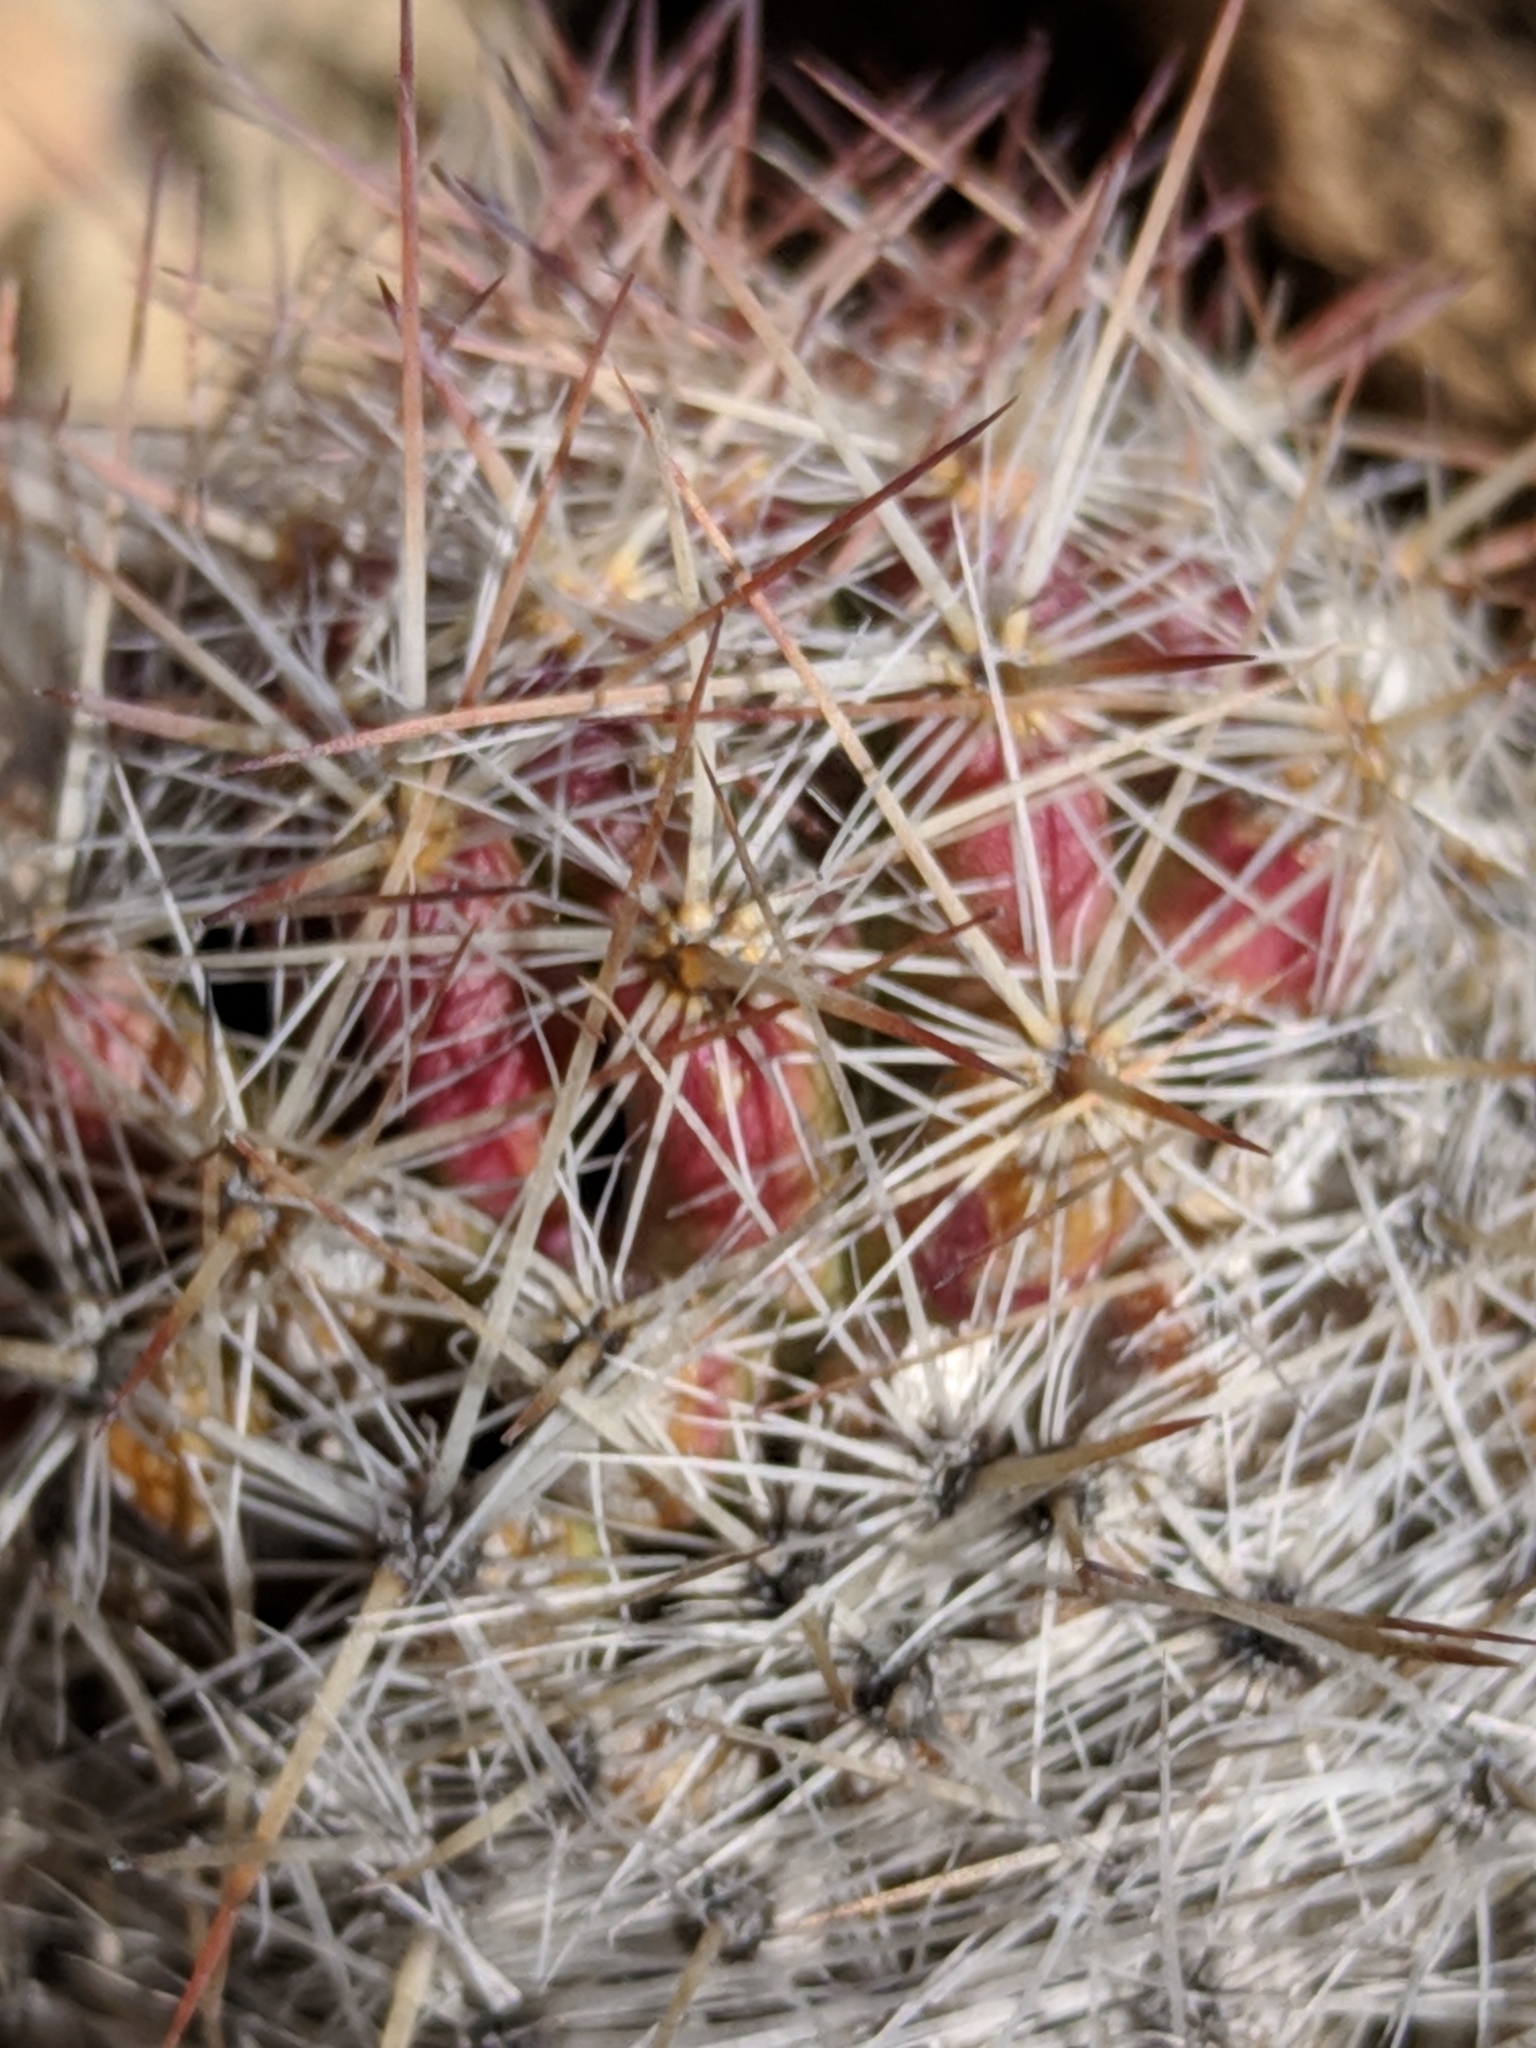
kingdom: Plantae
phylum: Tracheophyta
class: Magnoliopsida
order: Caryophyllales
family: Cactaceae
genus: Pelecyphora
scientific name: Pelecyphora tuberculosa
